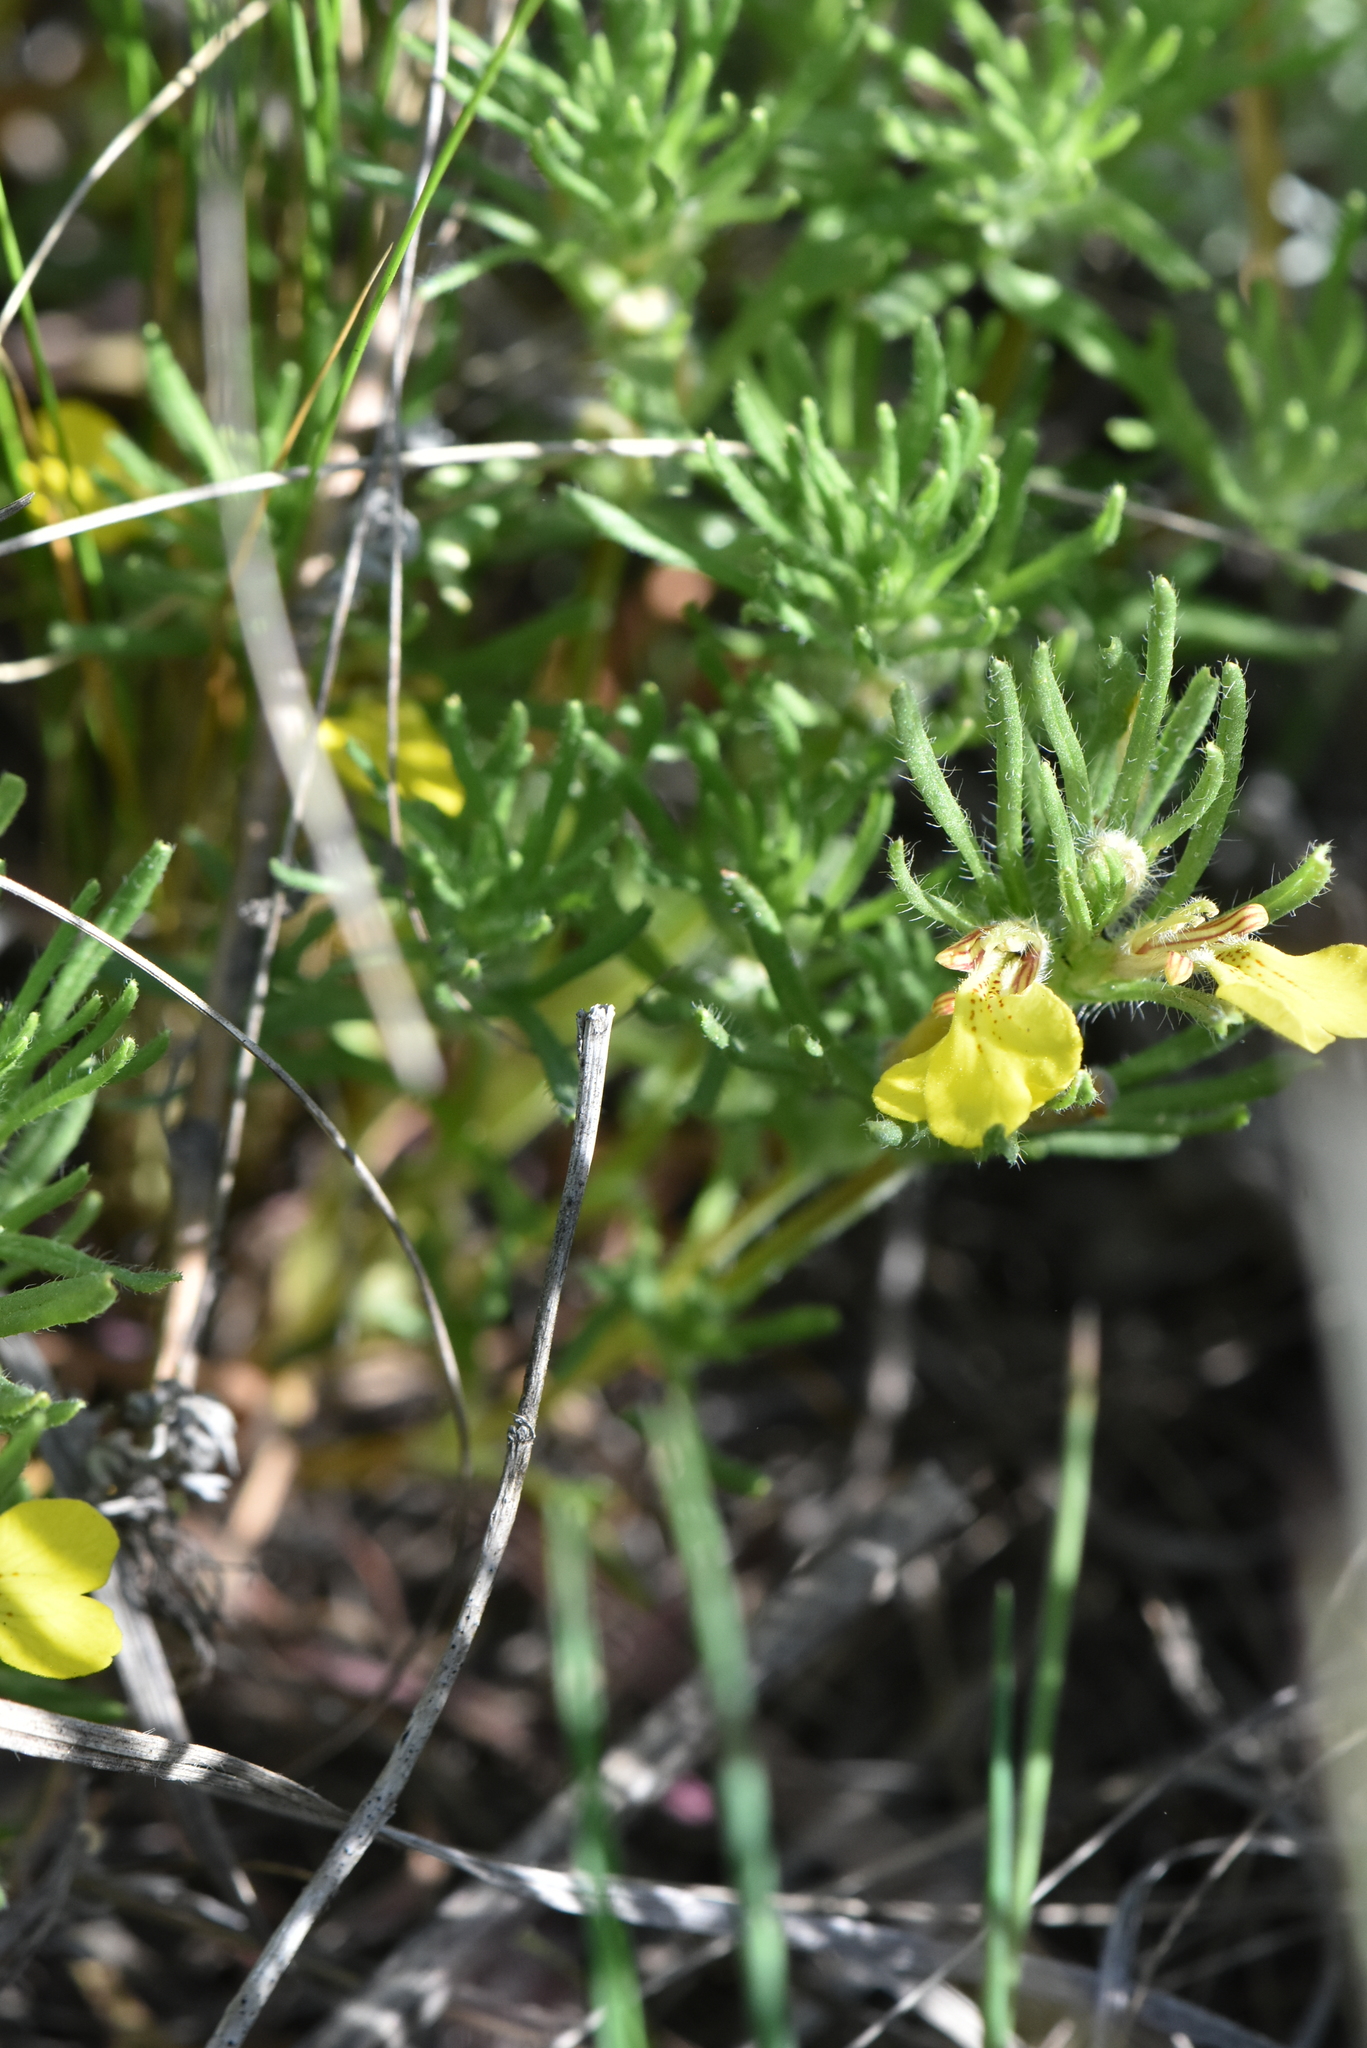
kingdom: Plantae
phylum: Tracheophyta
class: Magnoliopsida
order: Lamiales
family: Lamiaceae
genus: Ajuga
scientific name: Ajuga chamaepitys
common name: Ground-pine
